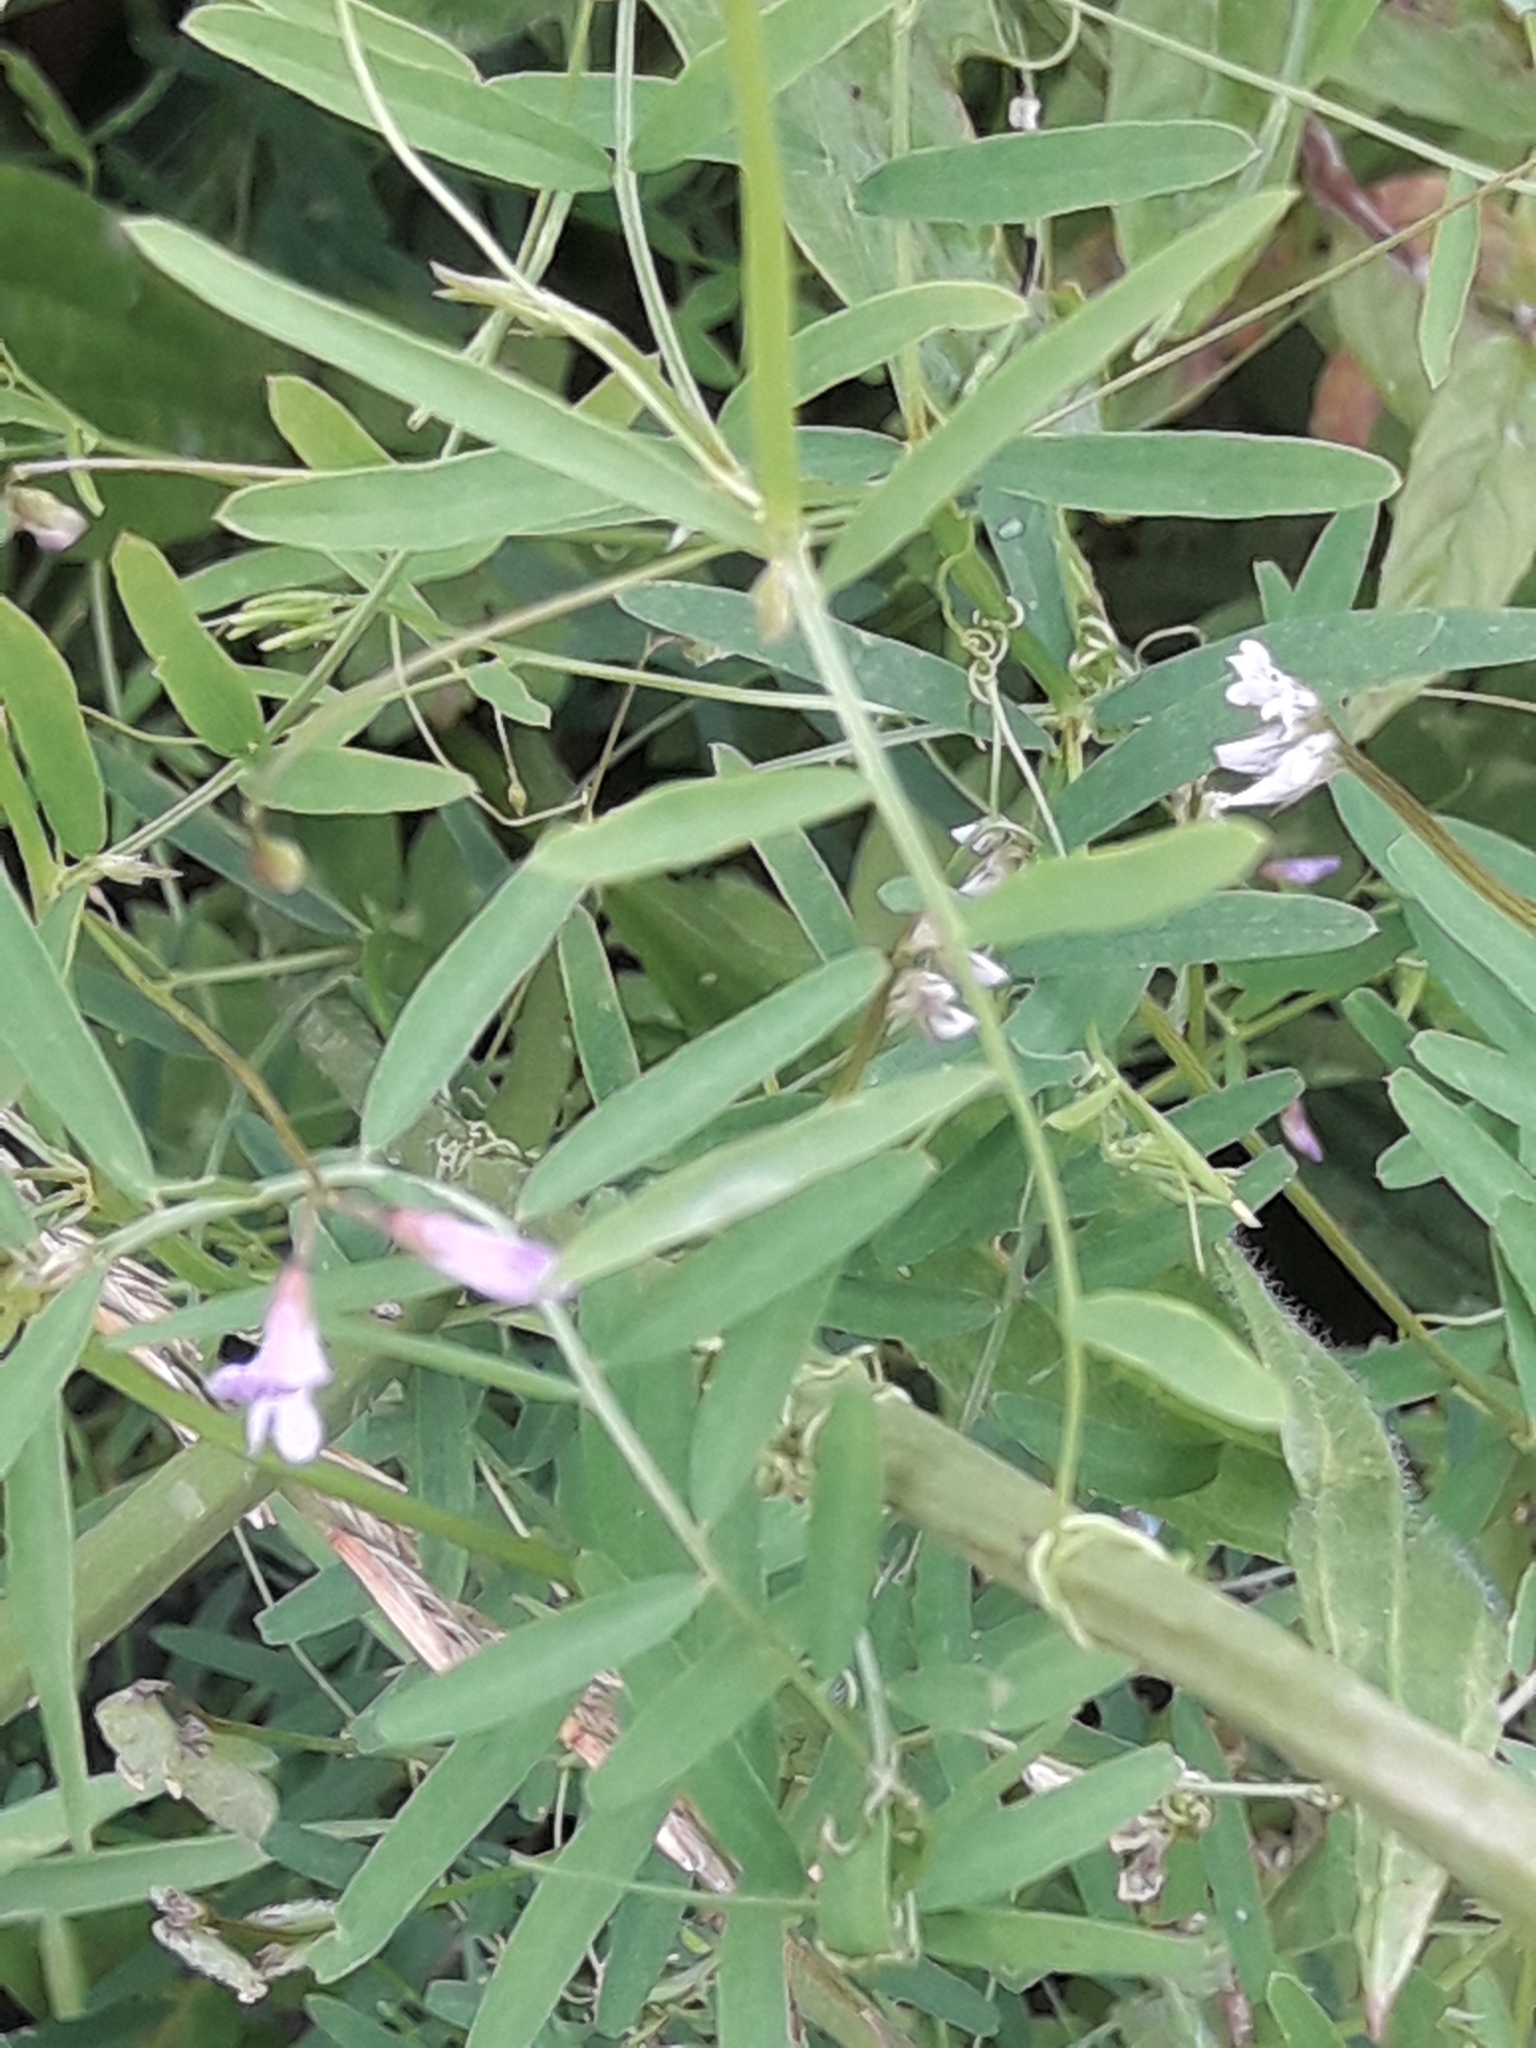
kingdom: Plantae
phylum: Tracheophyta
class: Magnoliopsida
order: Fabales
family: Fabaceae
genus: Vicia
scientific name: Vicia tetrasperma
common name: Smooth tare
